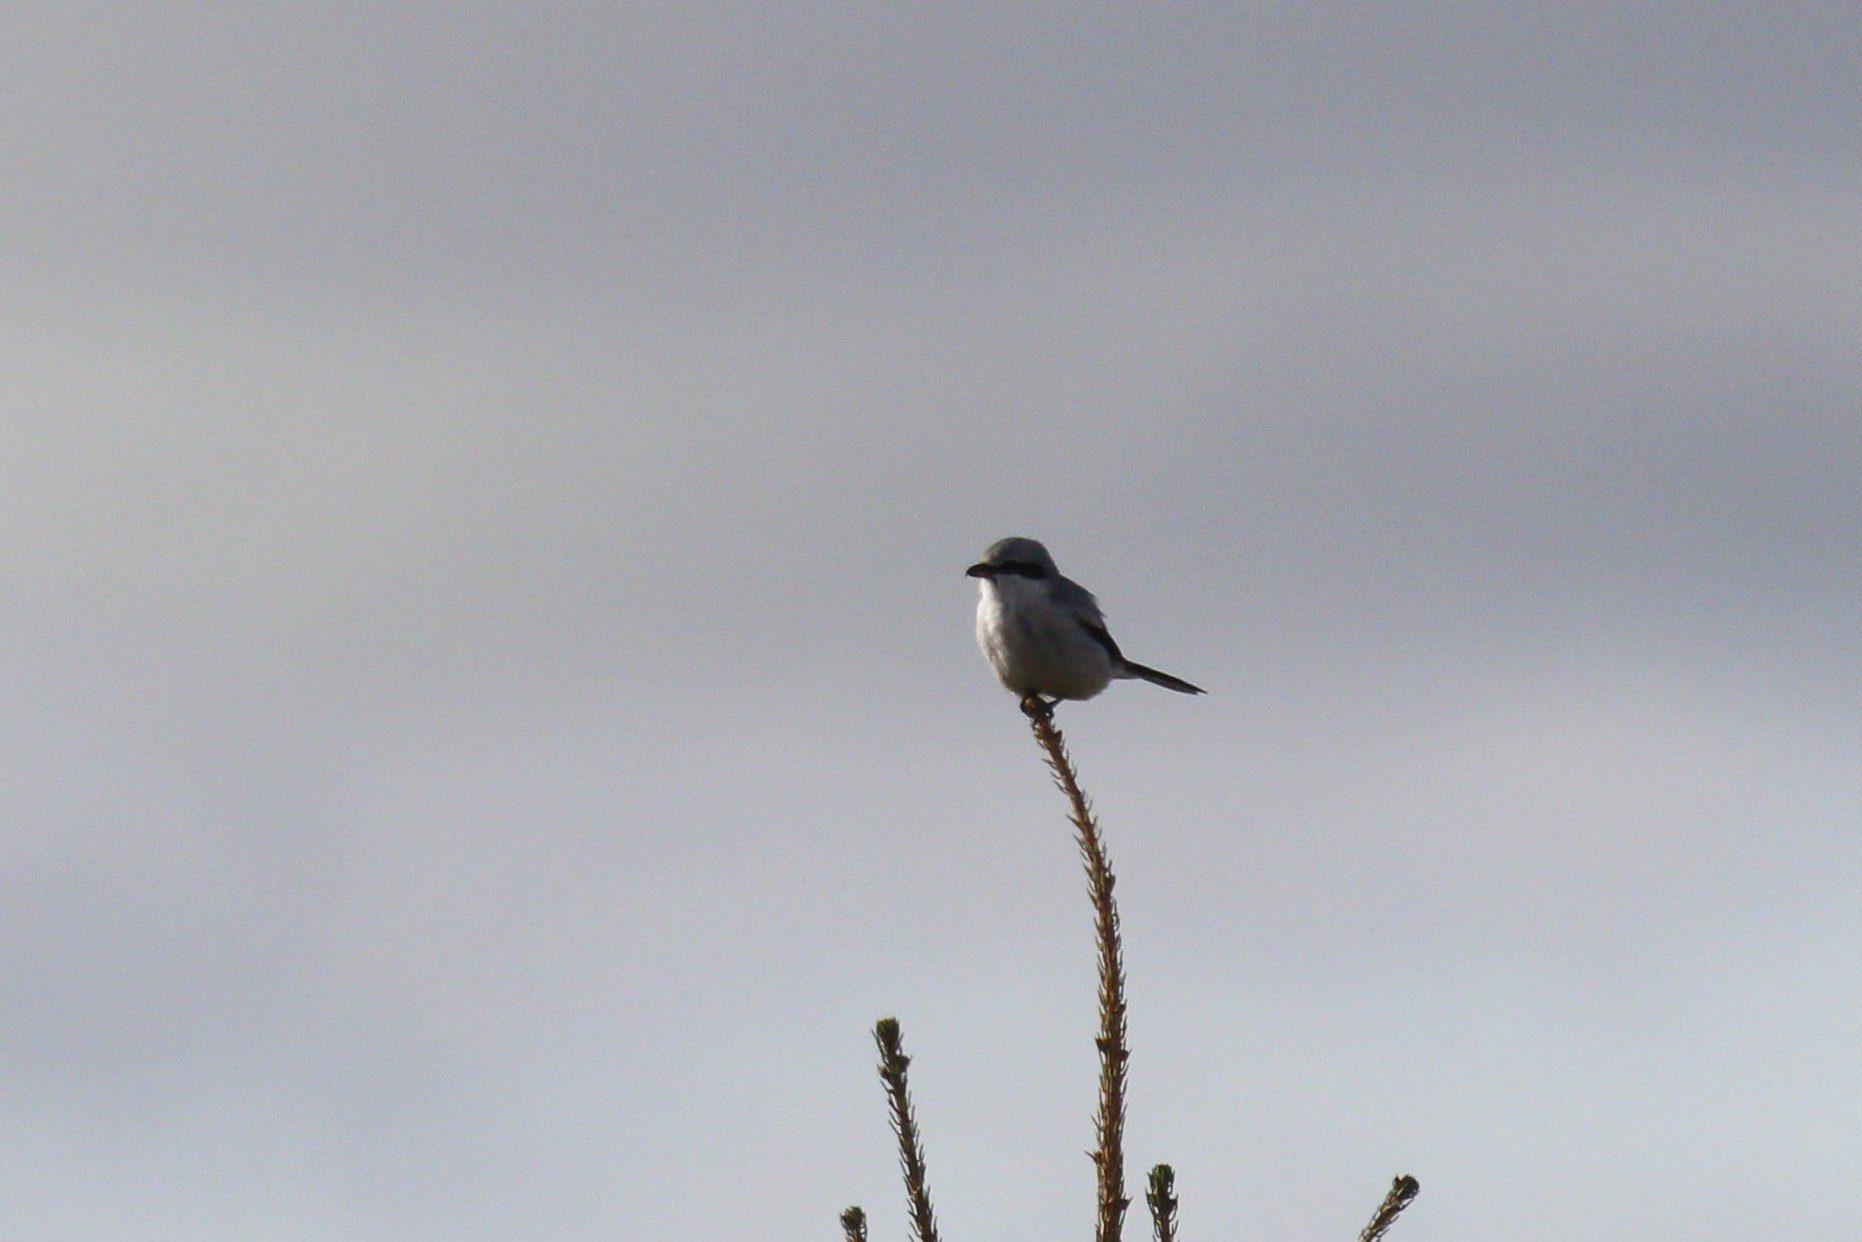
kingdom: Animalia
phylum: Chordata
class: Aves
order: Passeriformes
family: Laniidae
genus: Lanius
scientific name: Lanius excubitor
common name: Great grey shrike
